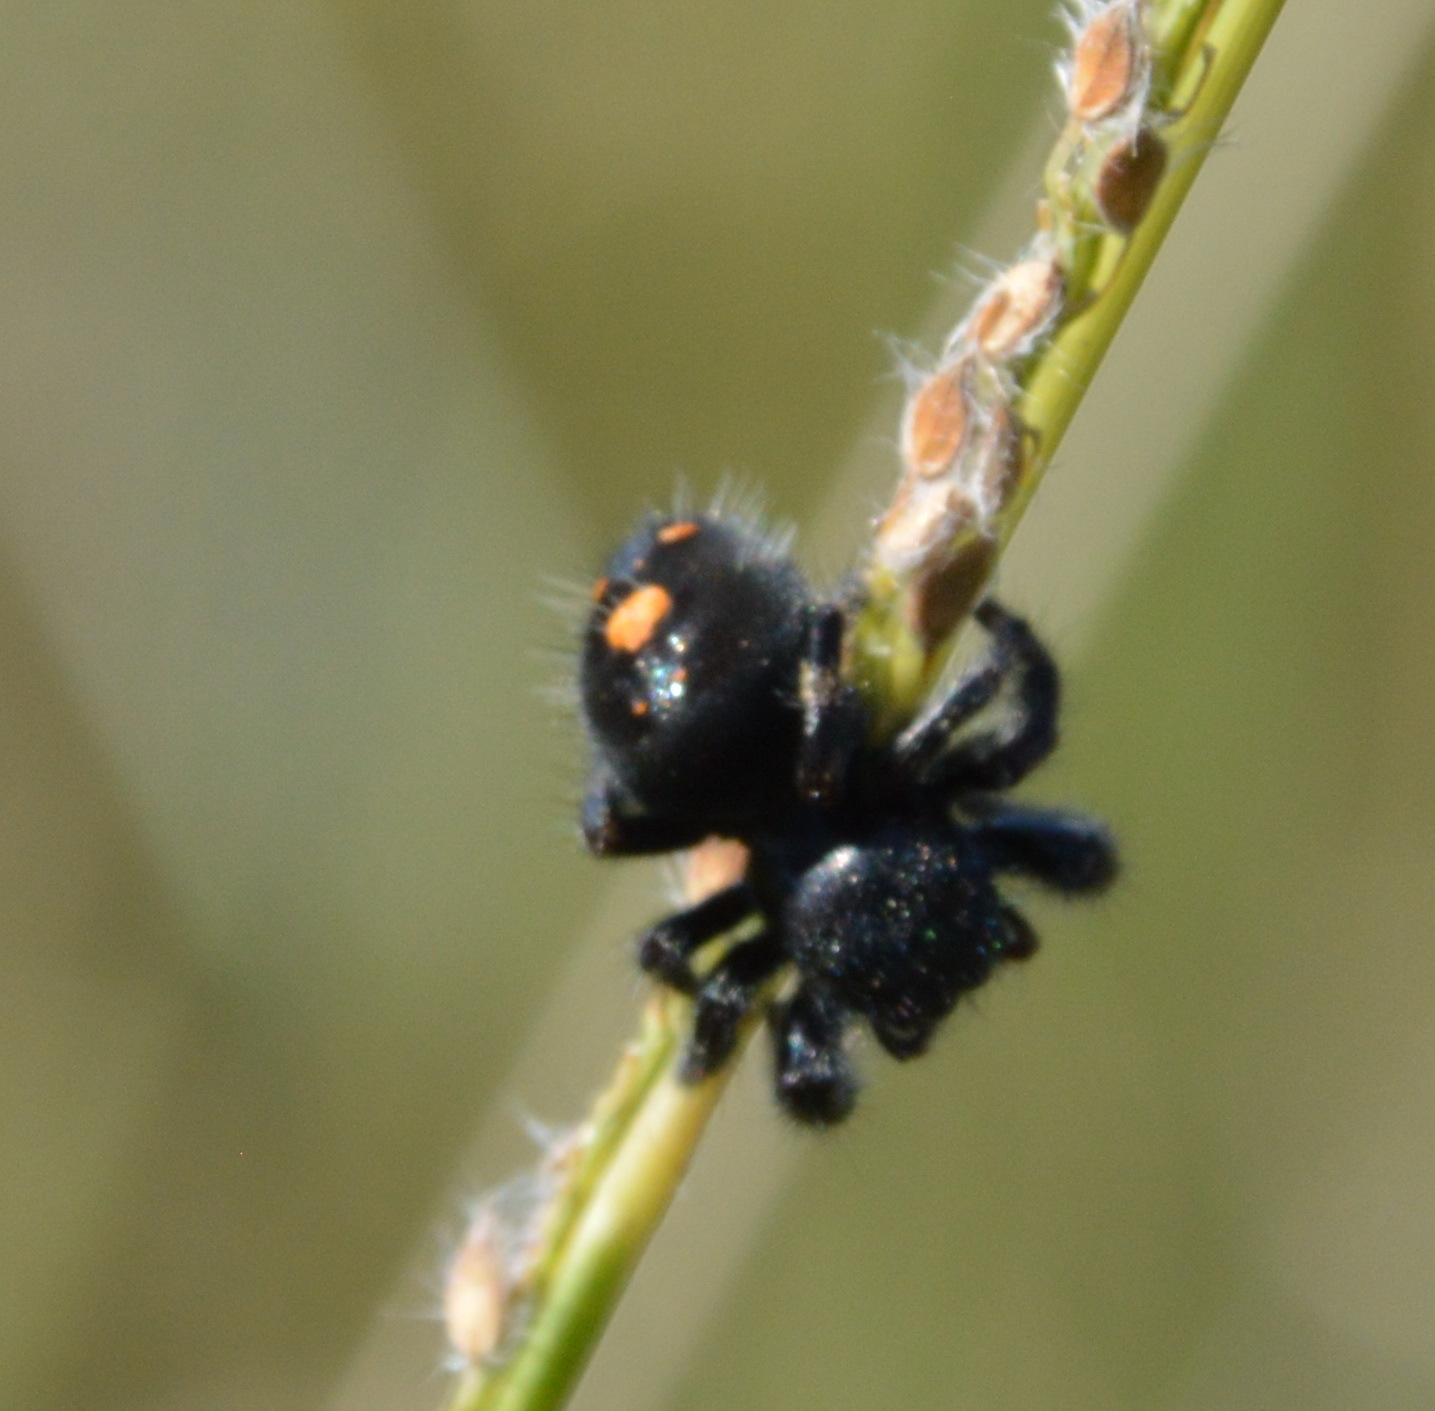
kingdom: Animalia
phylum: Arthropoda
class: Arachnida
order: Araneae
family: Salticidae
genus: Phidippus
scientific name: Phidippus audax
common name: Bold jumper
